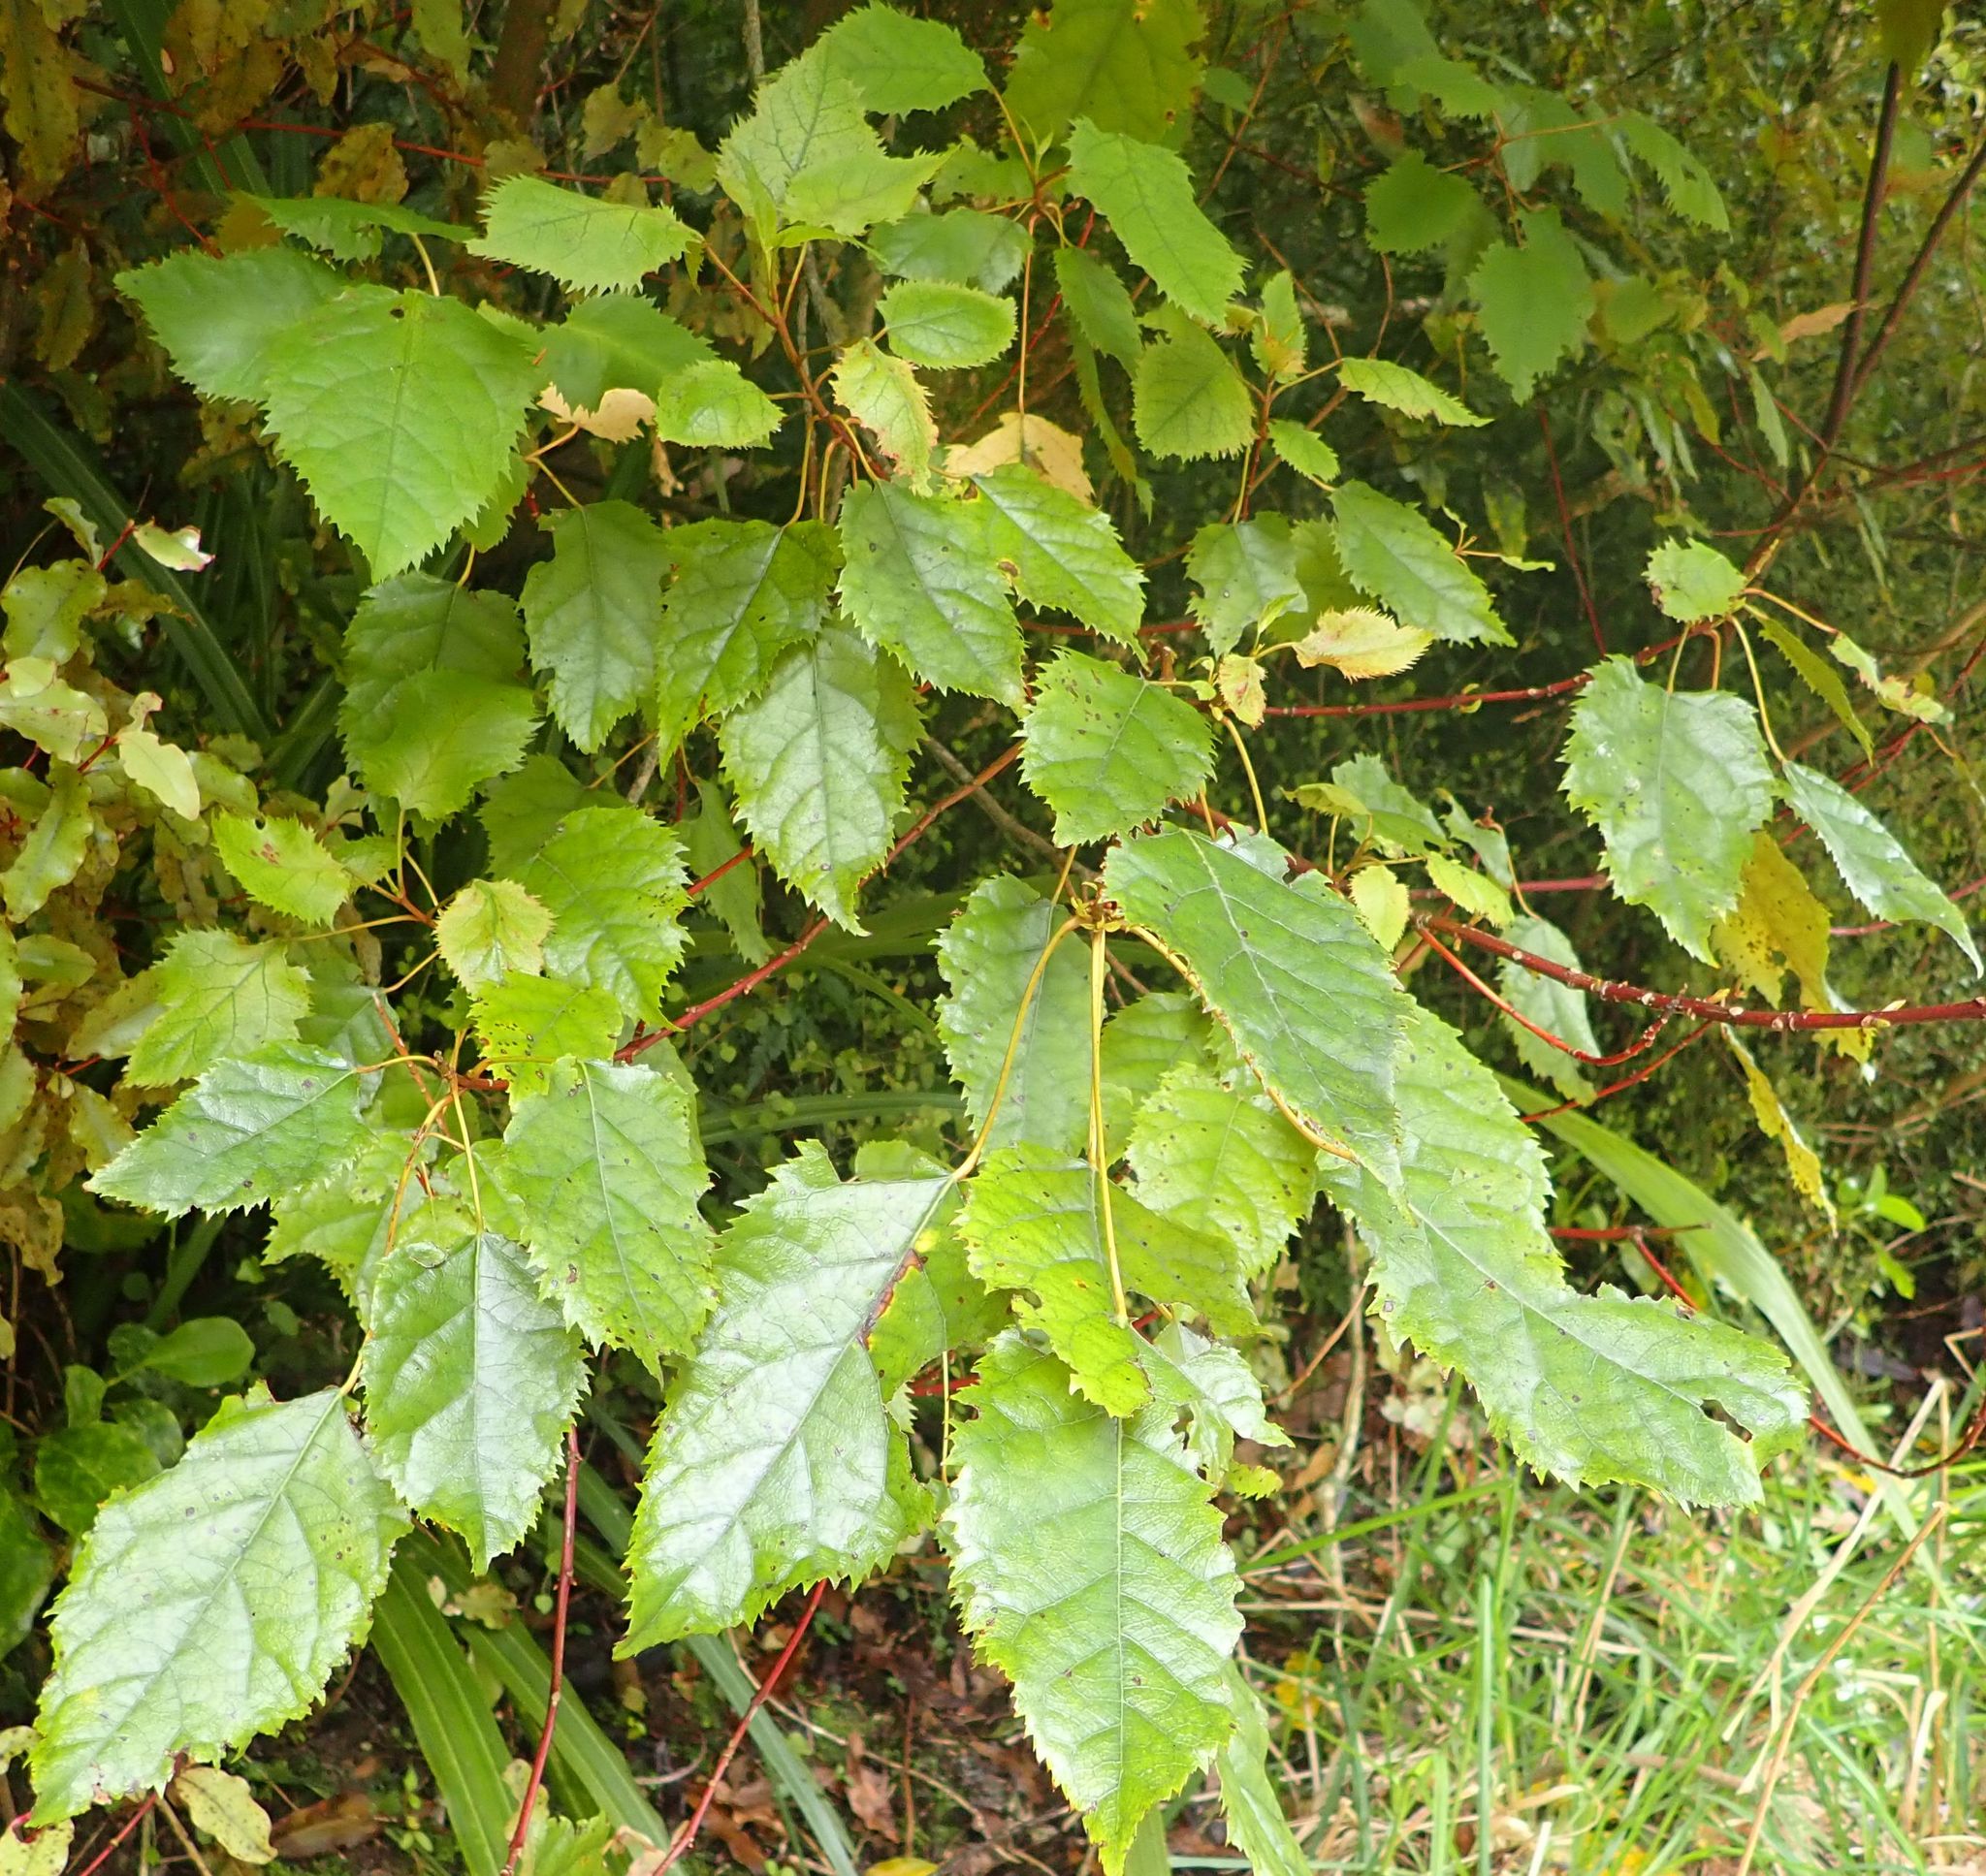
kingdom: Plantae
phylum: Tracheophyta
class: Magnoliopsida
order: Oxalidales
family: Elaeocarpaceae
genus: Aristotelia
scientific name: Aristotelia serrata
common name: New zealand wineberry
